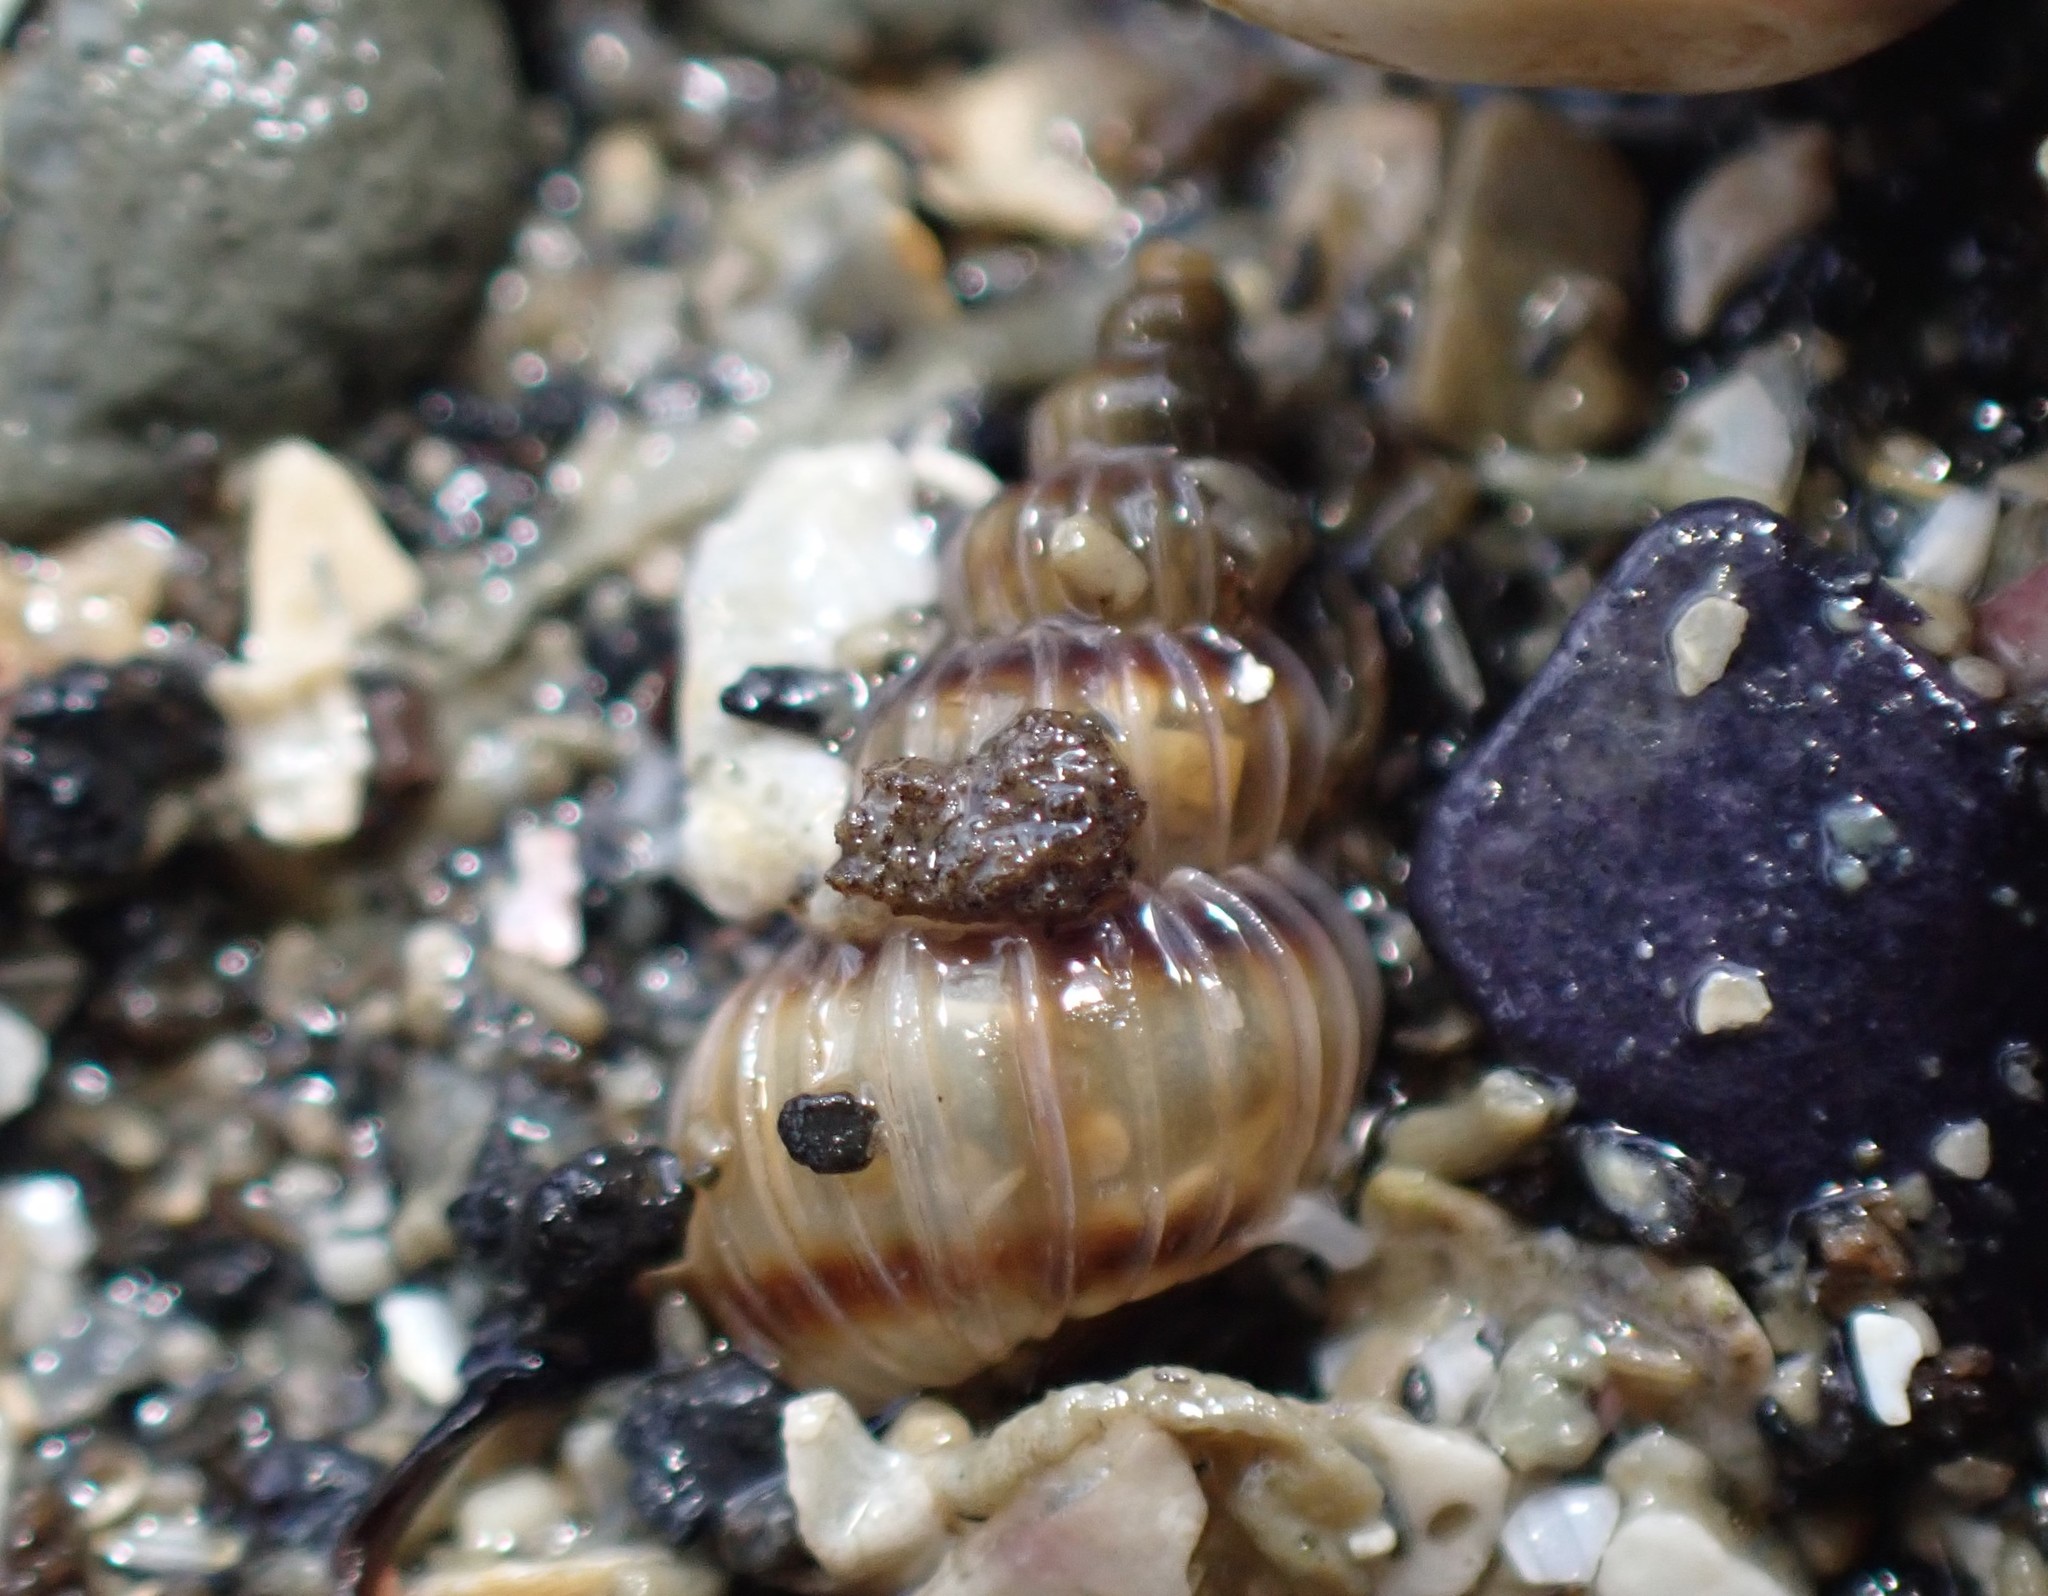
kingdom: Animalia
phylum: Mollusca
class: Gastropoda
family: Epitoniidae
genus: Epitonium
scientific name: Epitonium tenellum
